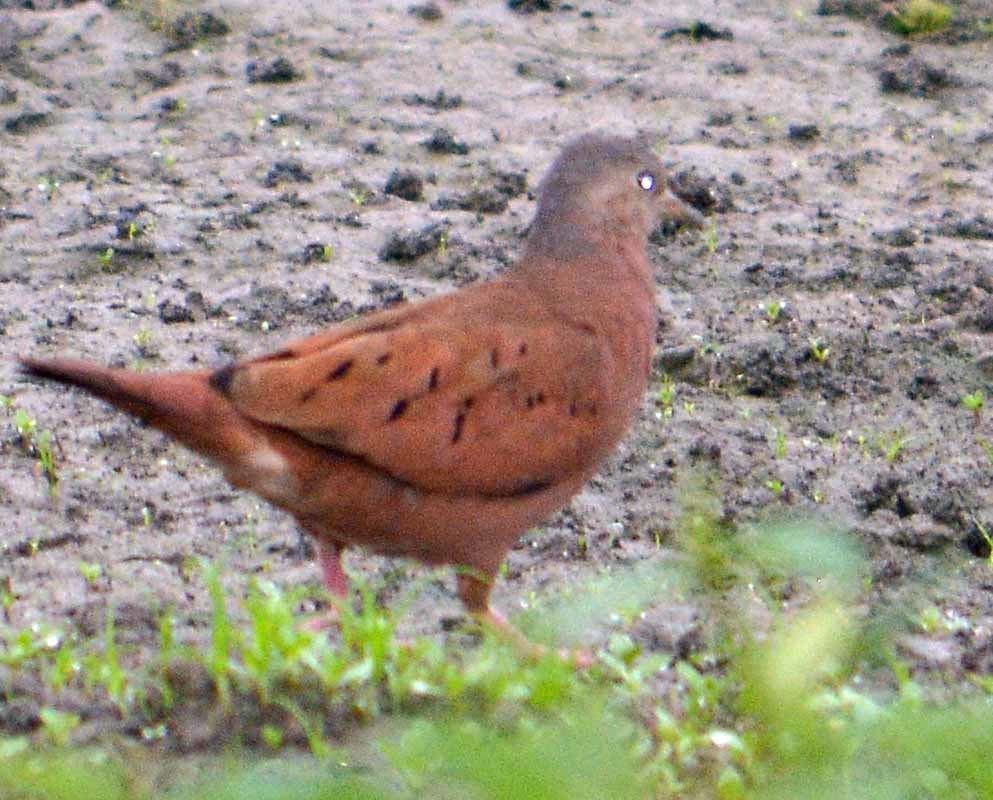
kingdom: Animalia
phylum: Chordata
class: Aves
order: Columbiformes
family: Columbidae
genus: Columbina
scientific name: Columbina talpacoti
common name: Ruddy ground dove
